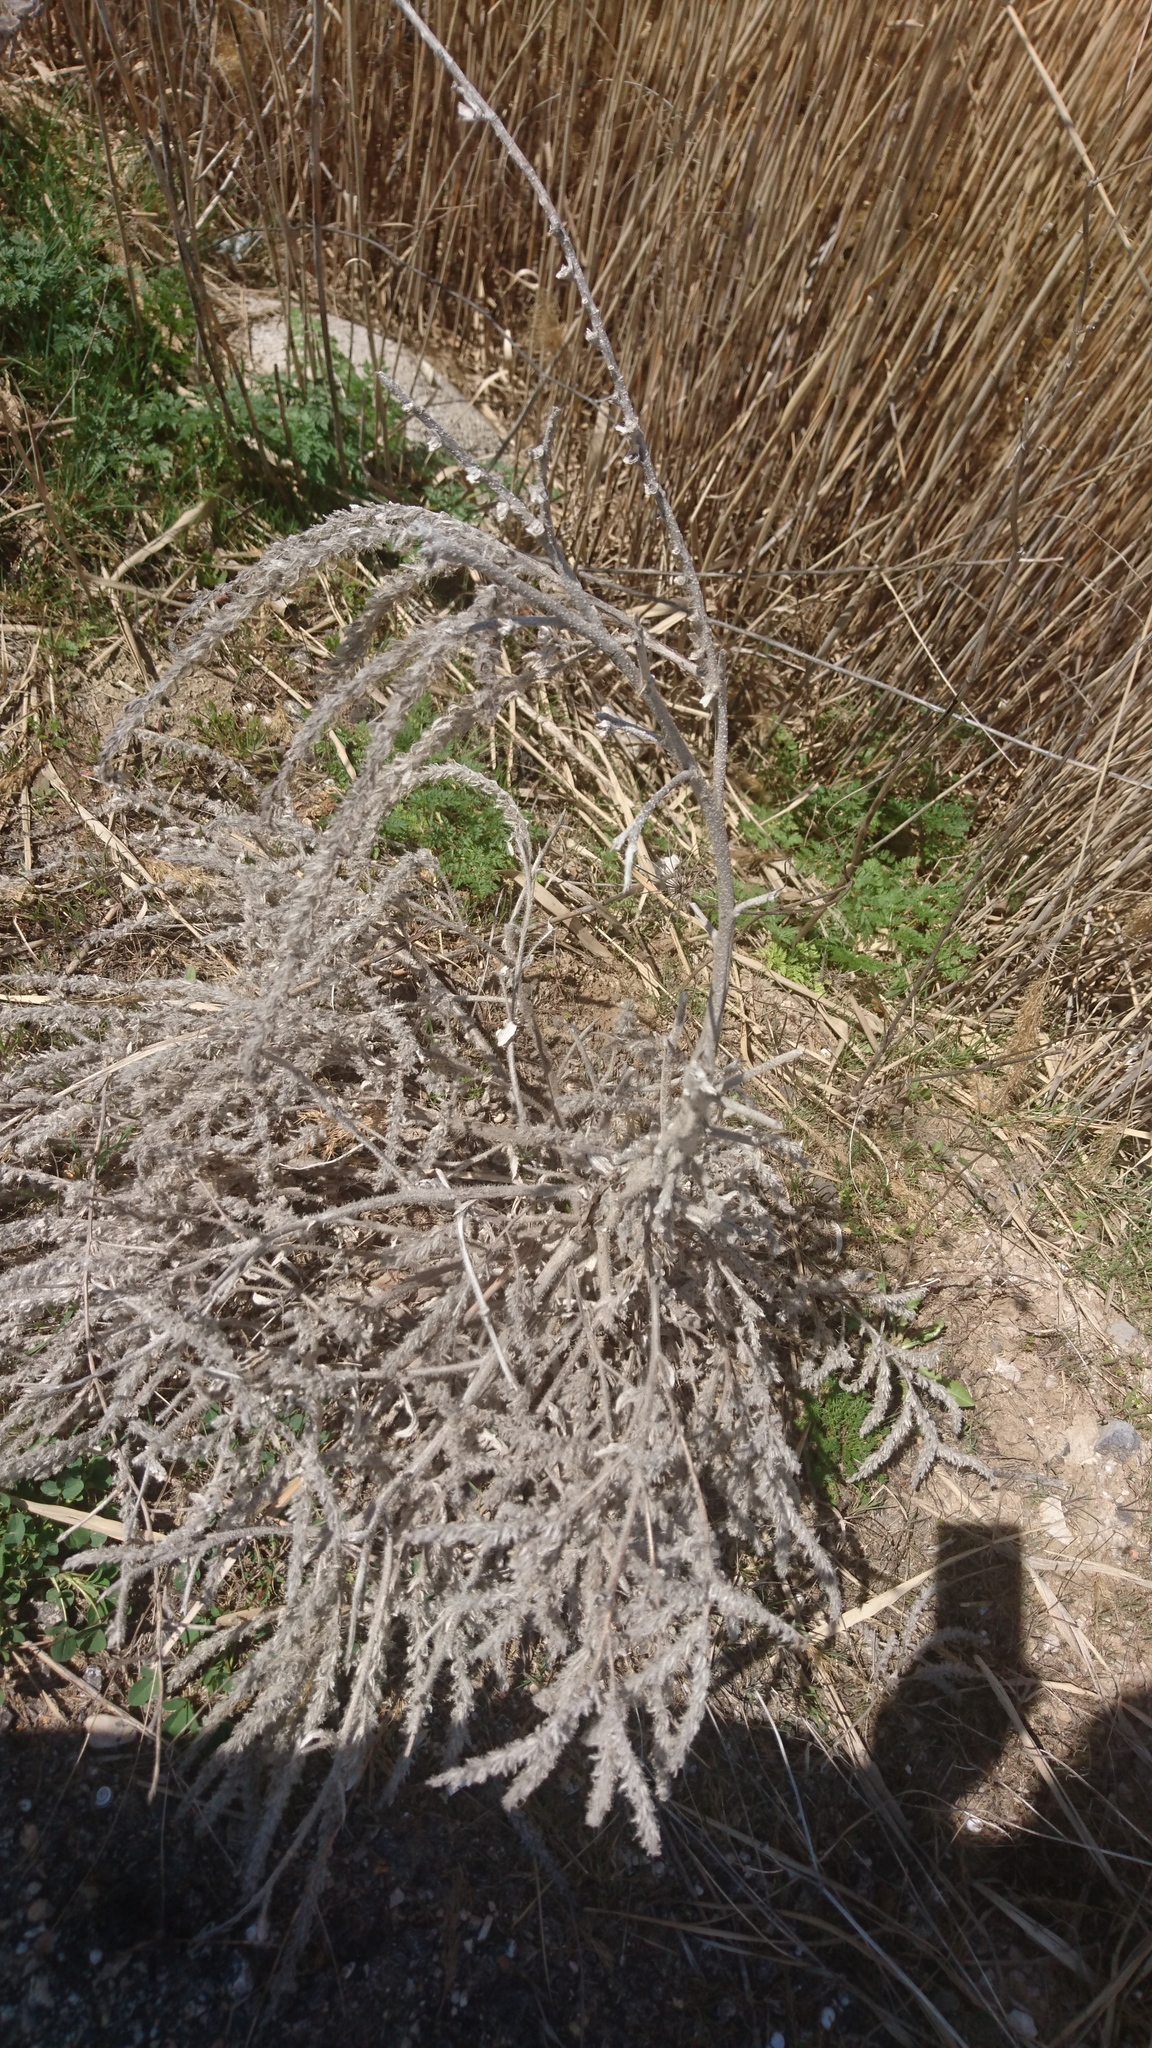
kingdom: Plantae
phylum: Tracheophyta
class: Magnoliopsida
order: Boraginales
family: Boraginaceae
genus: Echium
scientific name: Echium italicum
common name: Italian viper's bugloss
